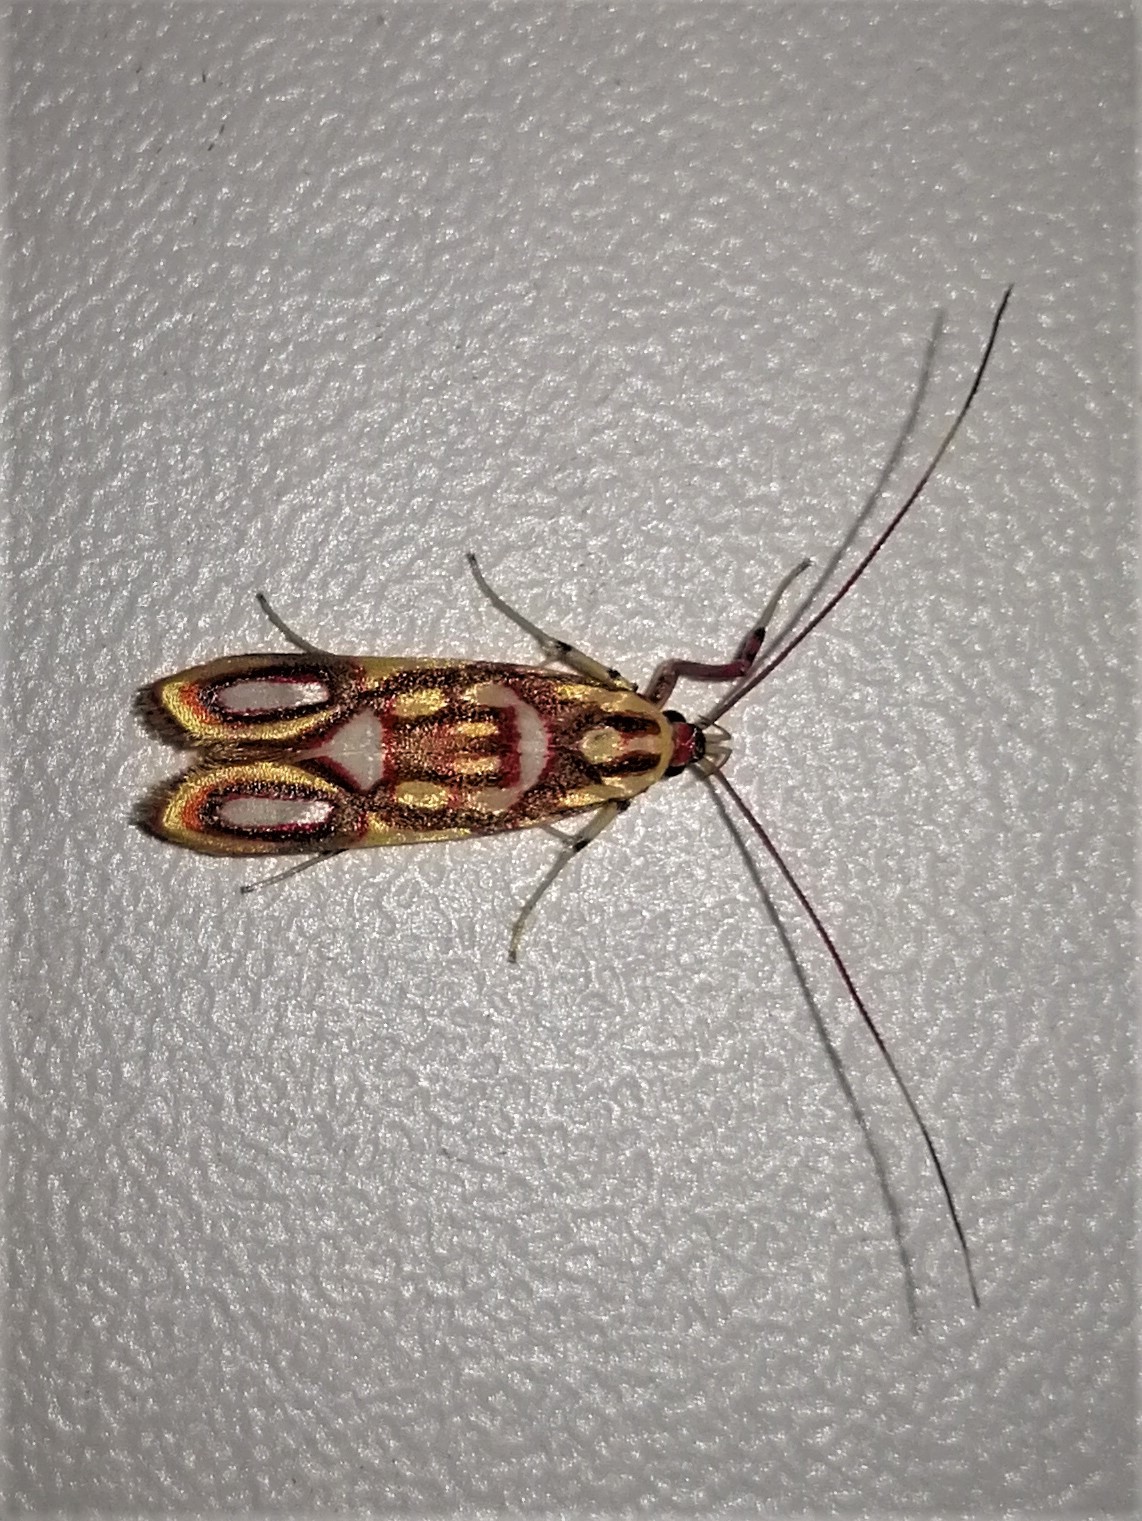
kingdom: Animalia
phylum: Arthropoda
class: Insecta
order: Lepidoptera
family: Depressariidae
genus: Filinota
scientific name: Filinota hermosella
